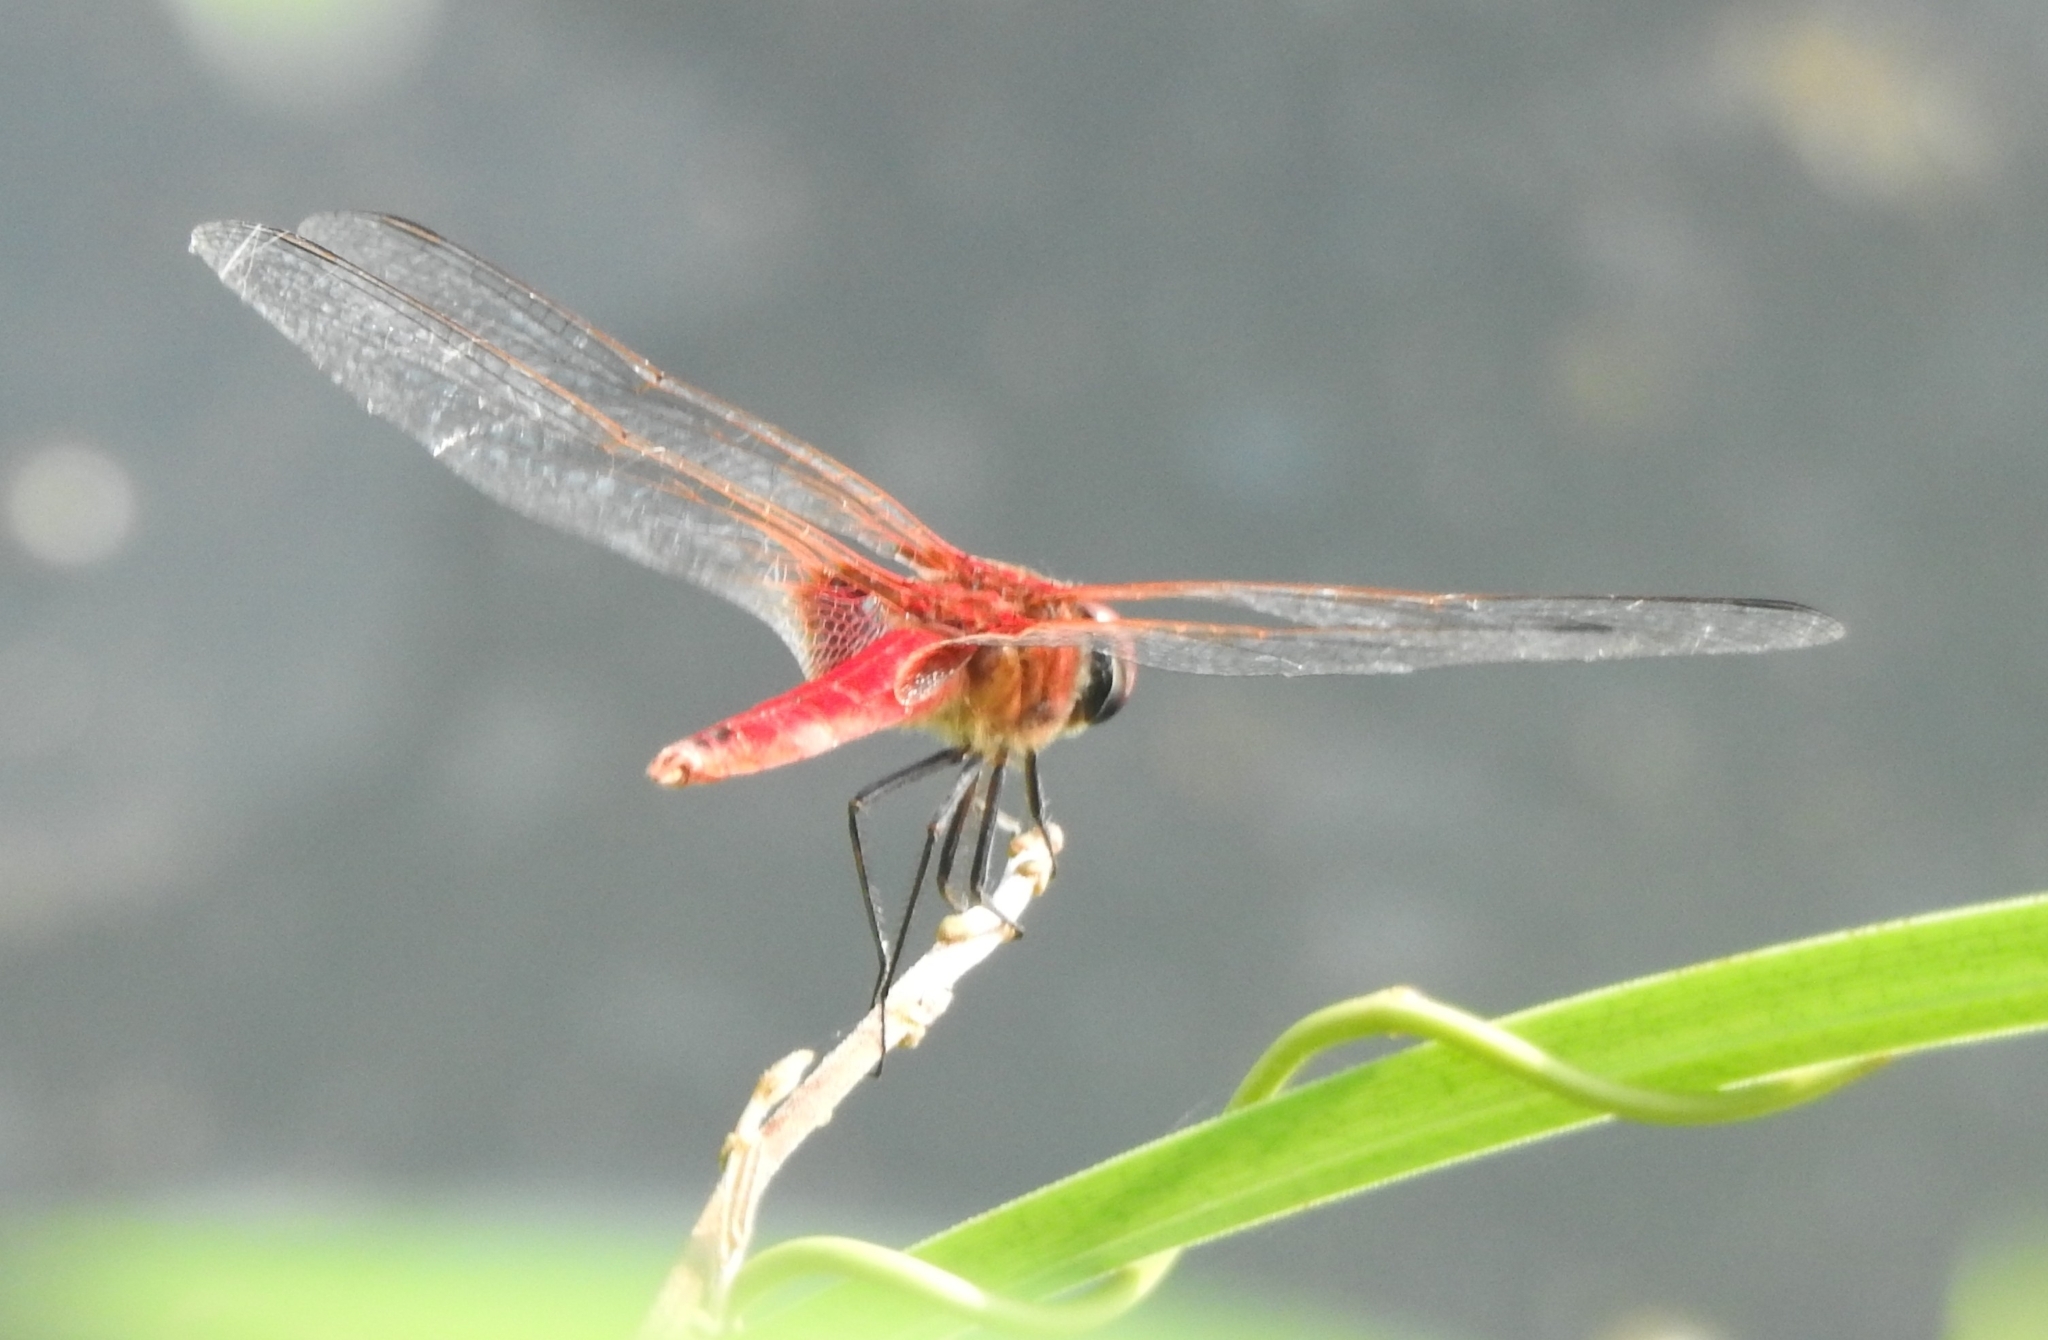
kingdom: Animalia
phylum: Arthropoda
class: Insecta
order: Odonata
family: Libellulidae
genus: Urothemis
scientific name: Urothemis signata
